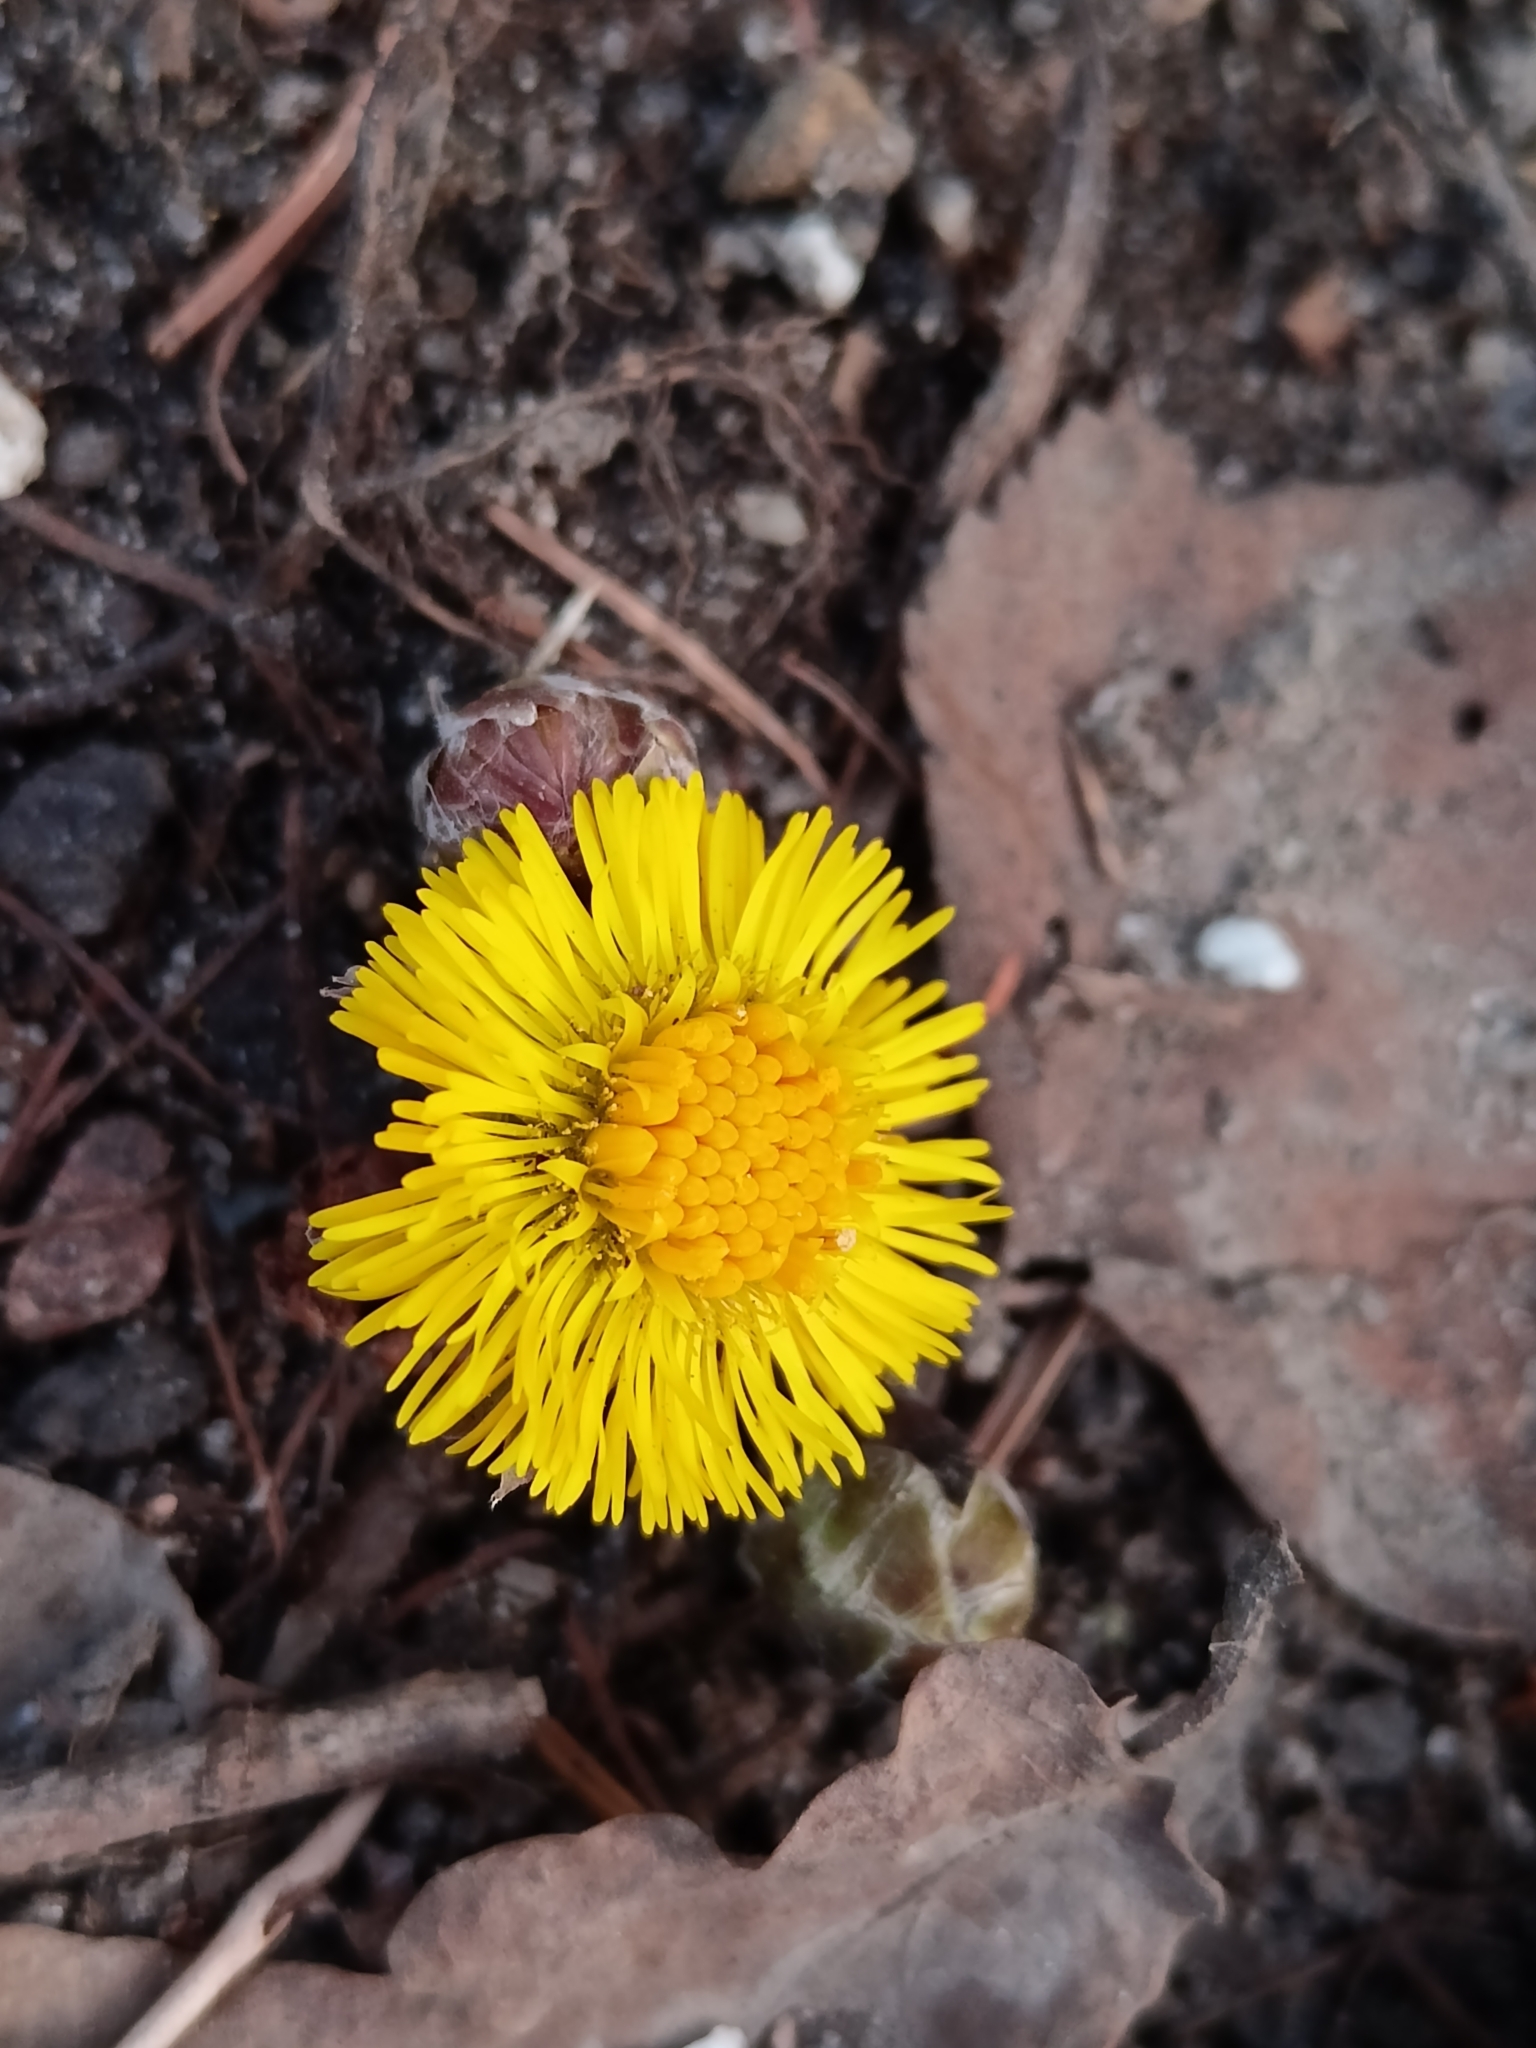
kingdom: Plantae
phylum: Tracheophyta
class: Magnoliopsida
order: Asterales
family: Asteraceae
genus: Tussilago
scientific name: Tussilago farfara
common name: Coltsfoot
